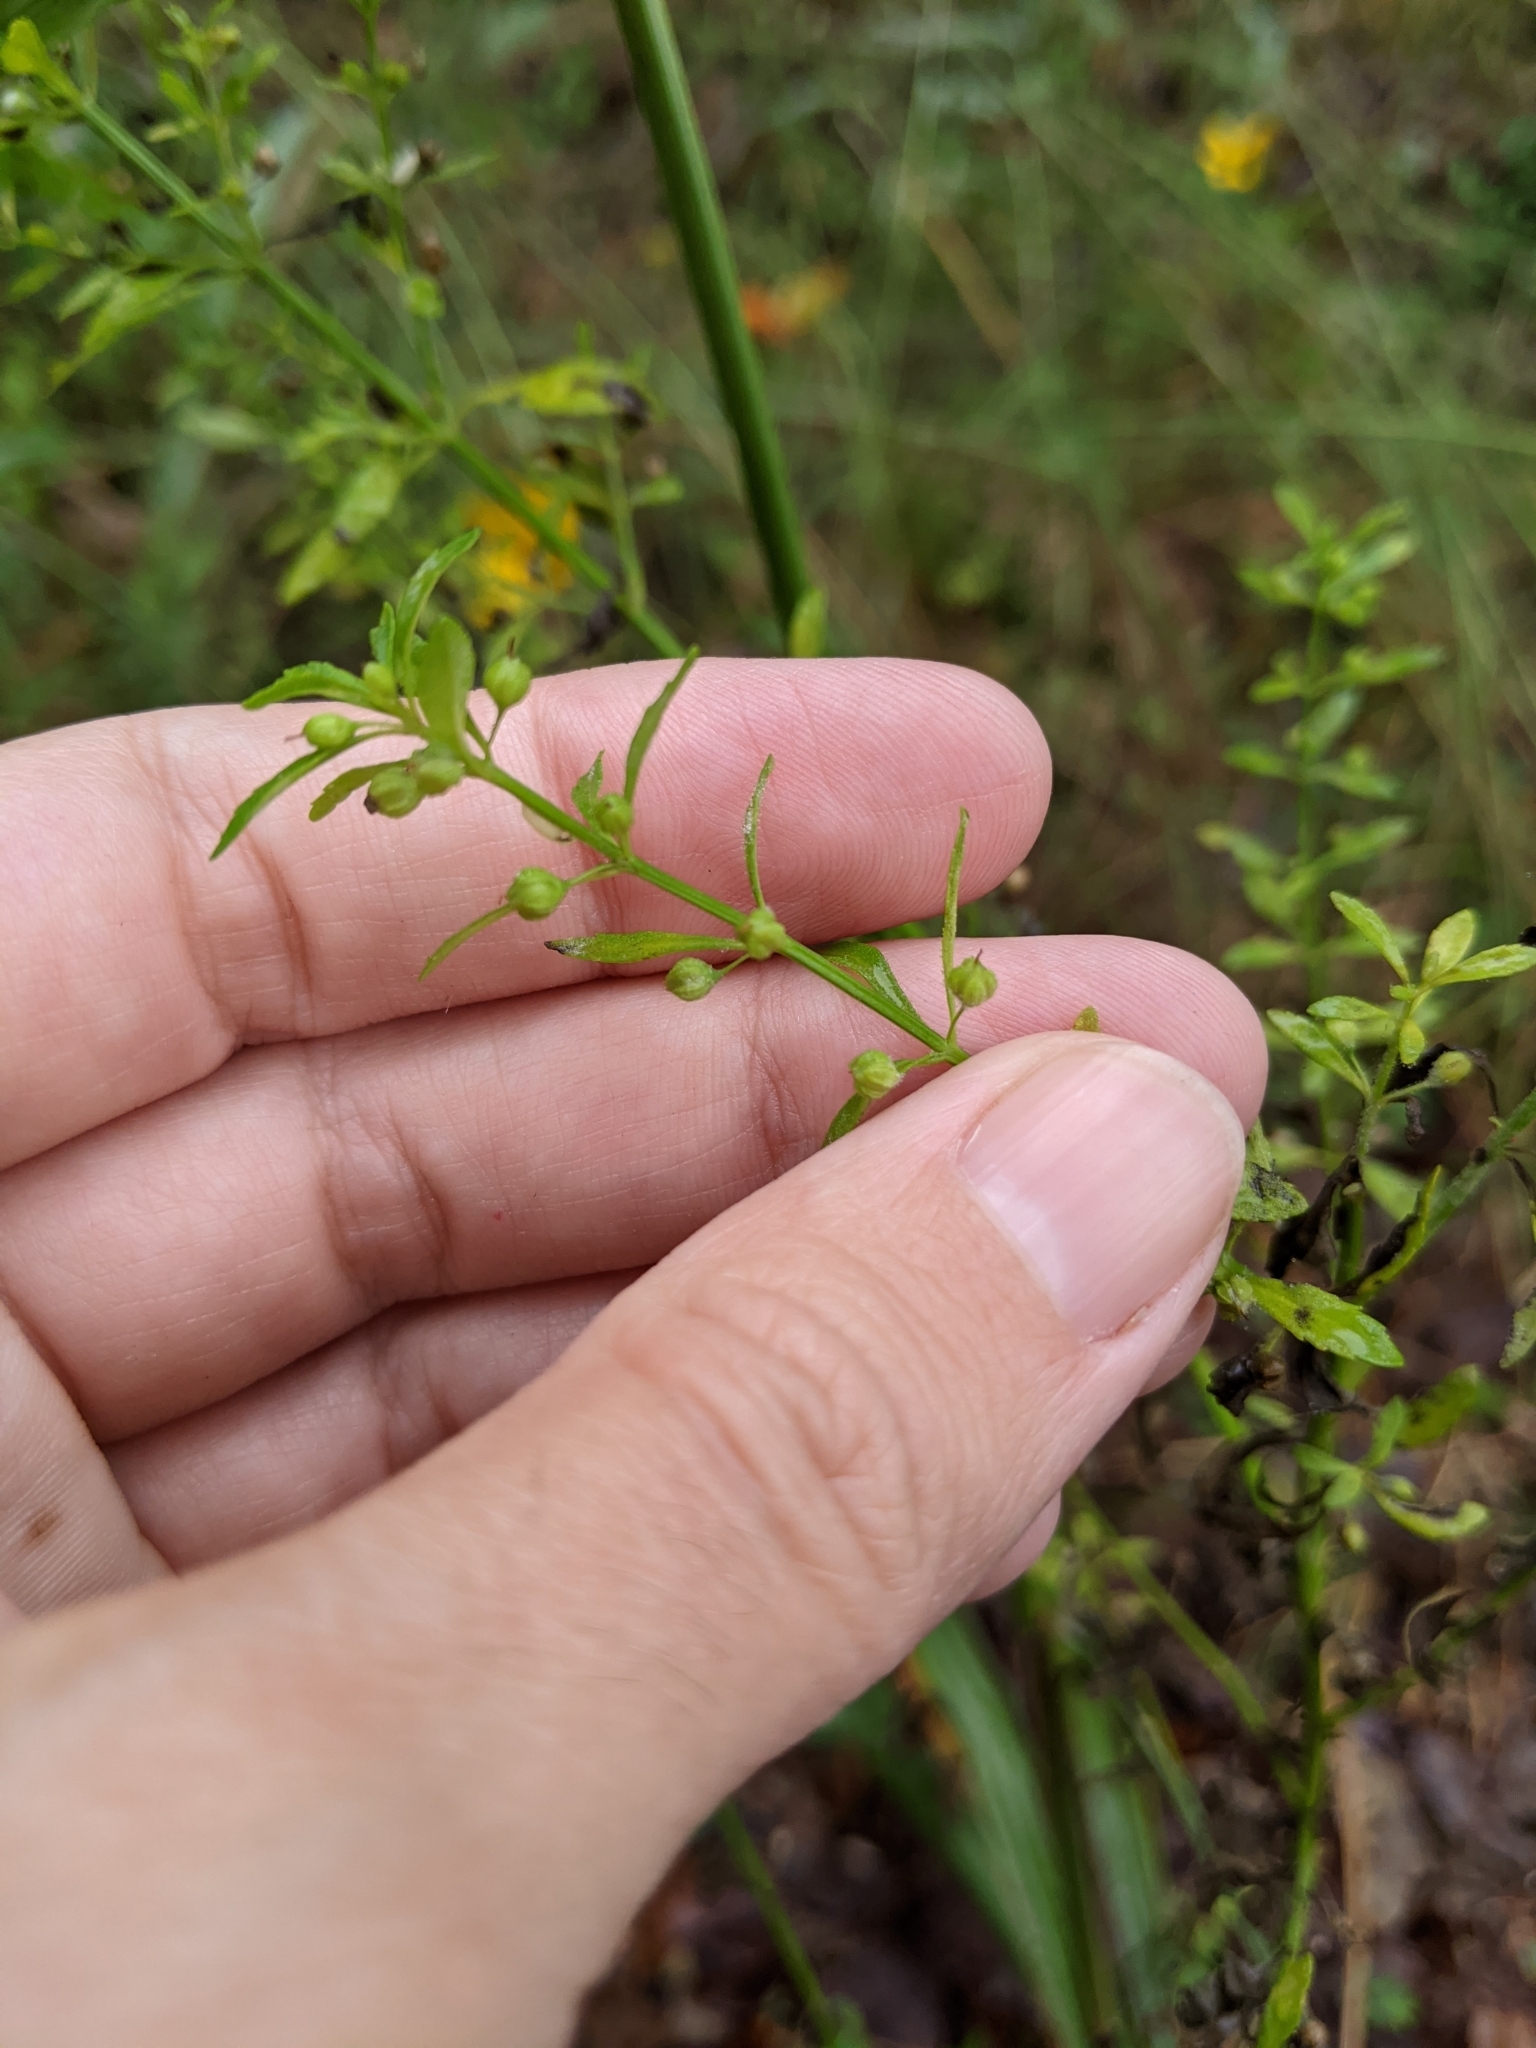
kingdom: Plantae
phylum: Tracheophyta
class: Magnoliopsida
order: Lamiales
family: Plantaginaceae
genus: Scoparia
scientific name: Scoparia dulcis
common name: Scoparia-weed
